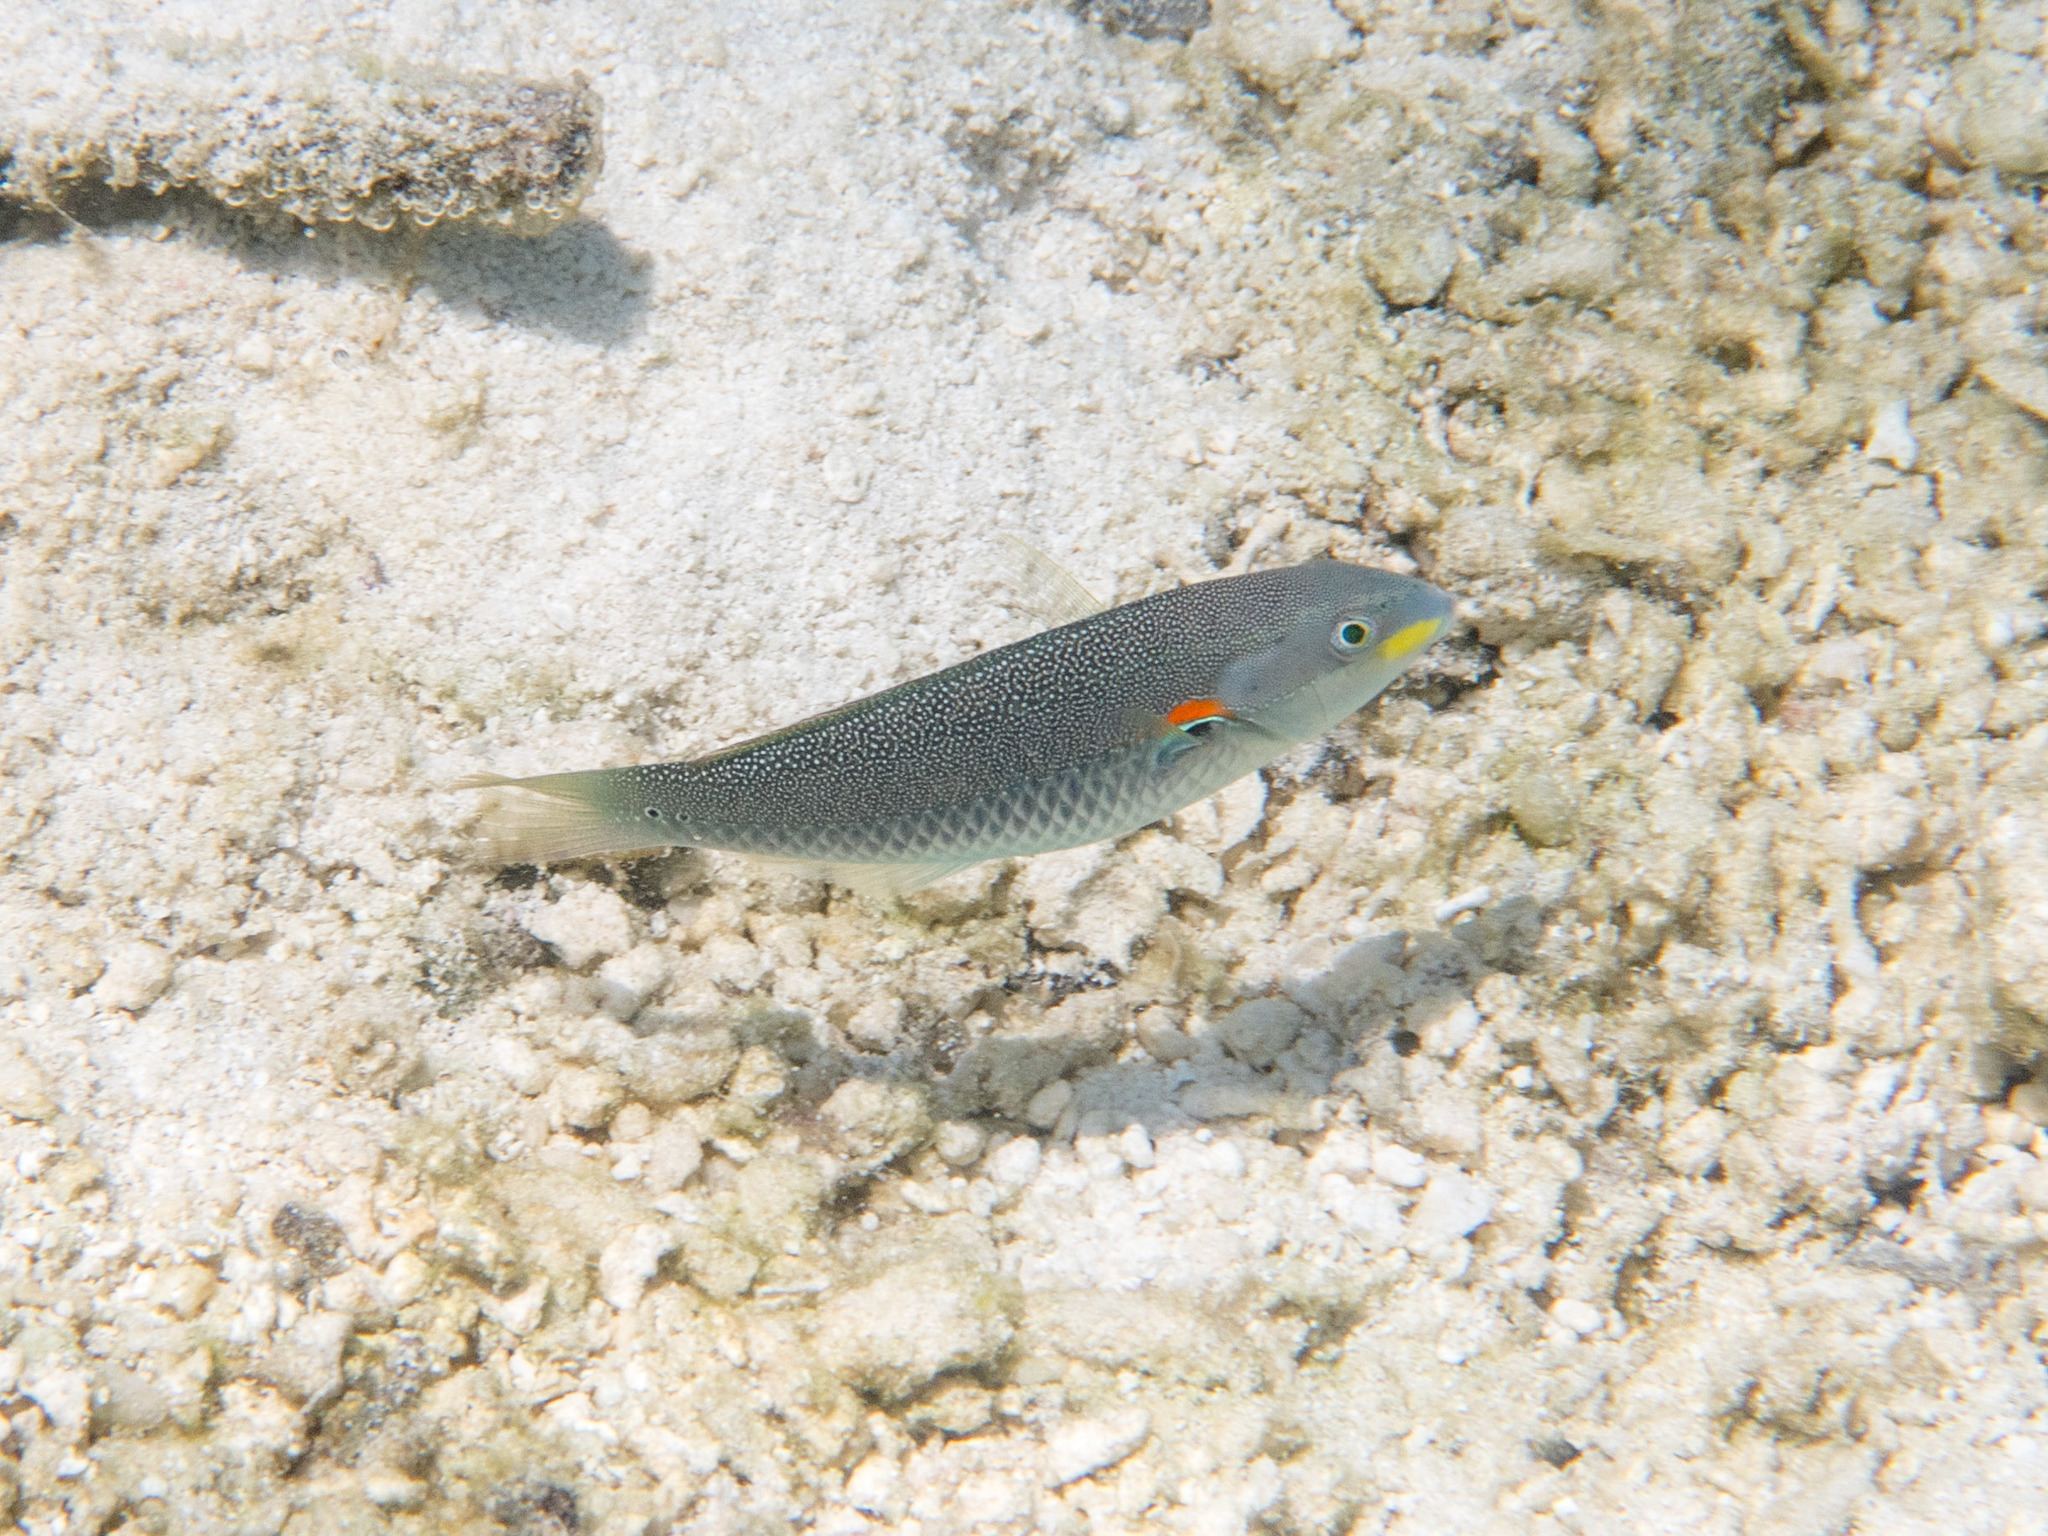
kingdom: Animalia
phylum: Chordata
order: Perciformes
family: Labridae
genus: Stethojulis
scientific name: Stethojulis albovittata
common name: Bluelined wrasse
